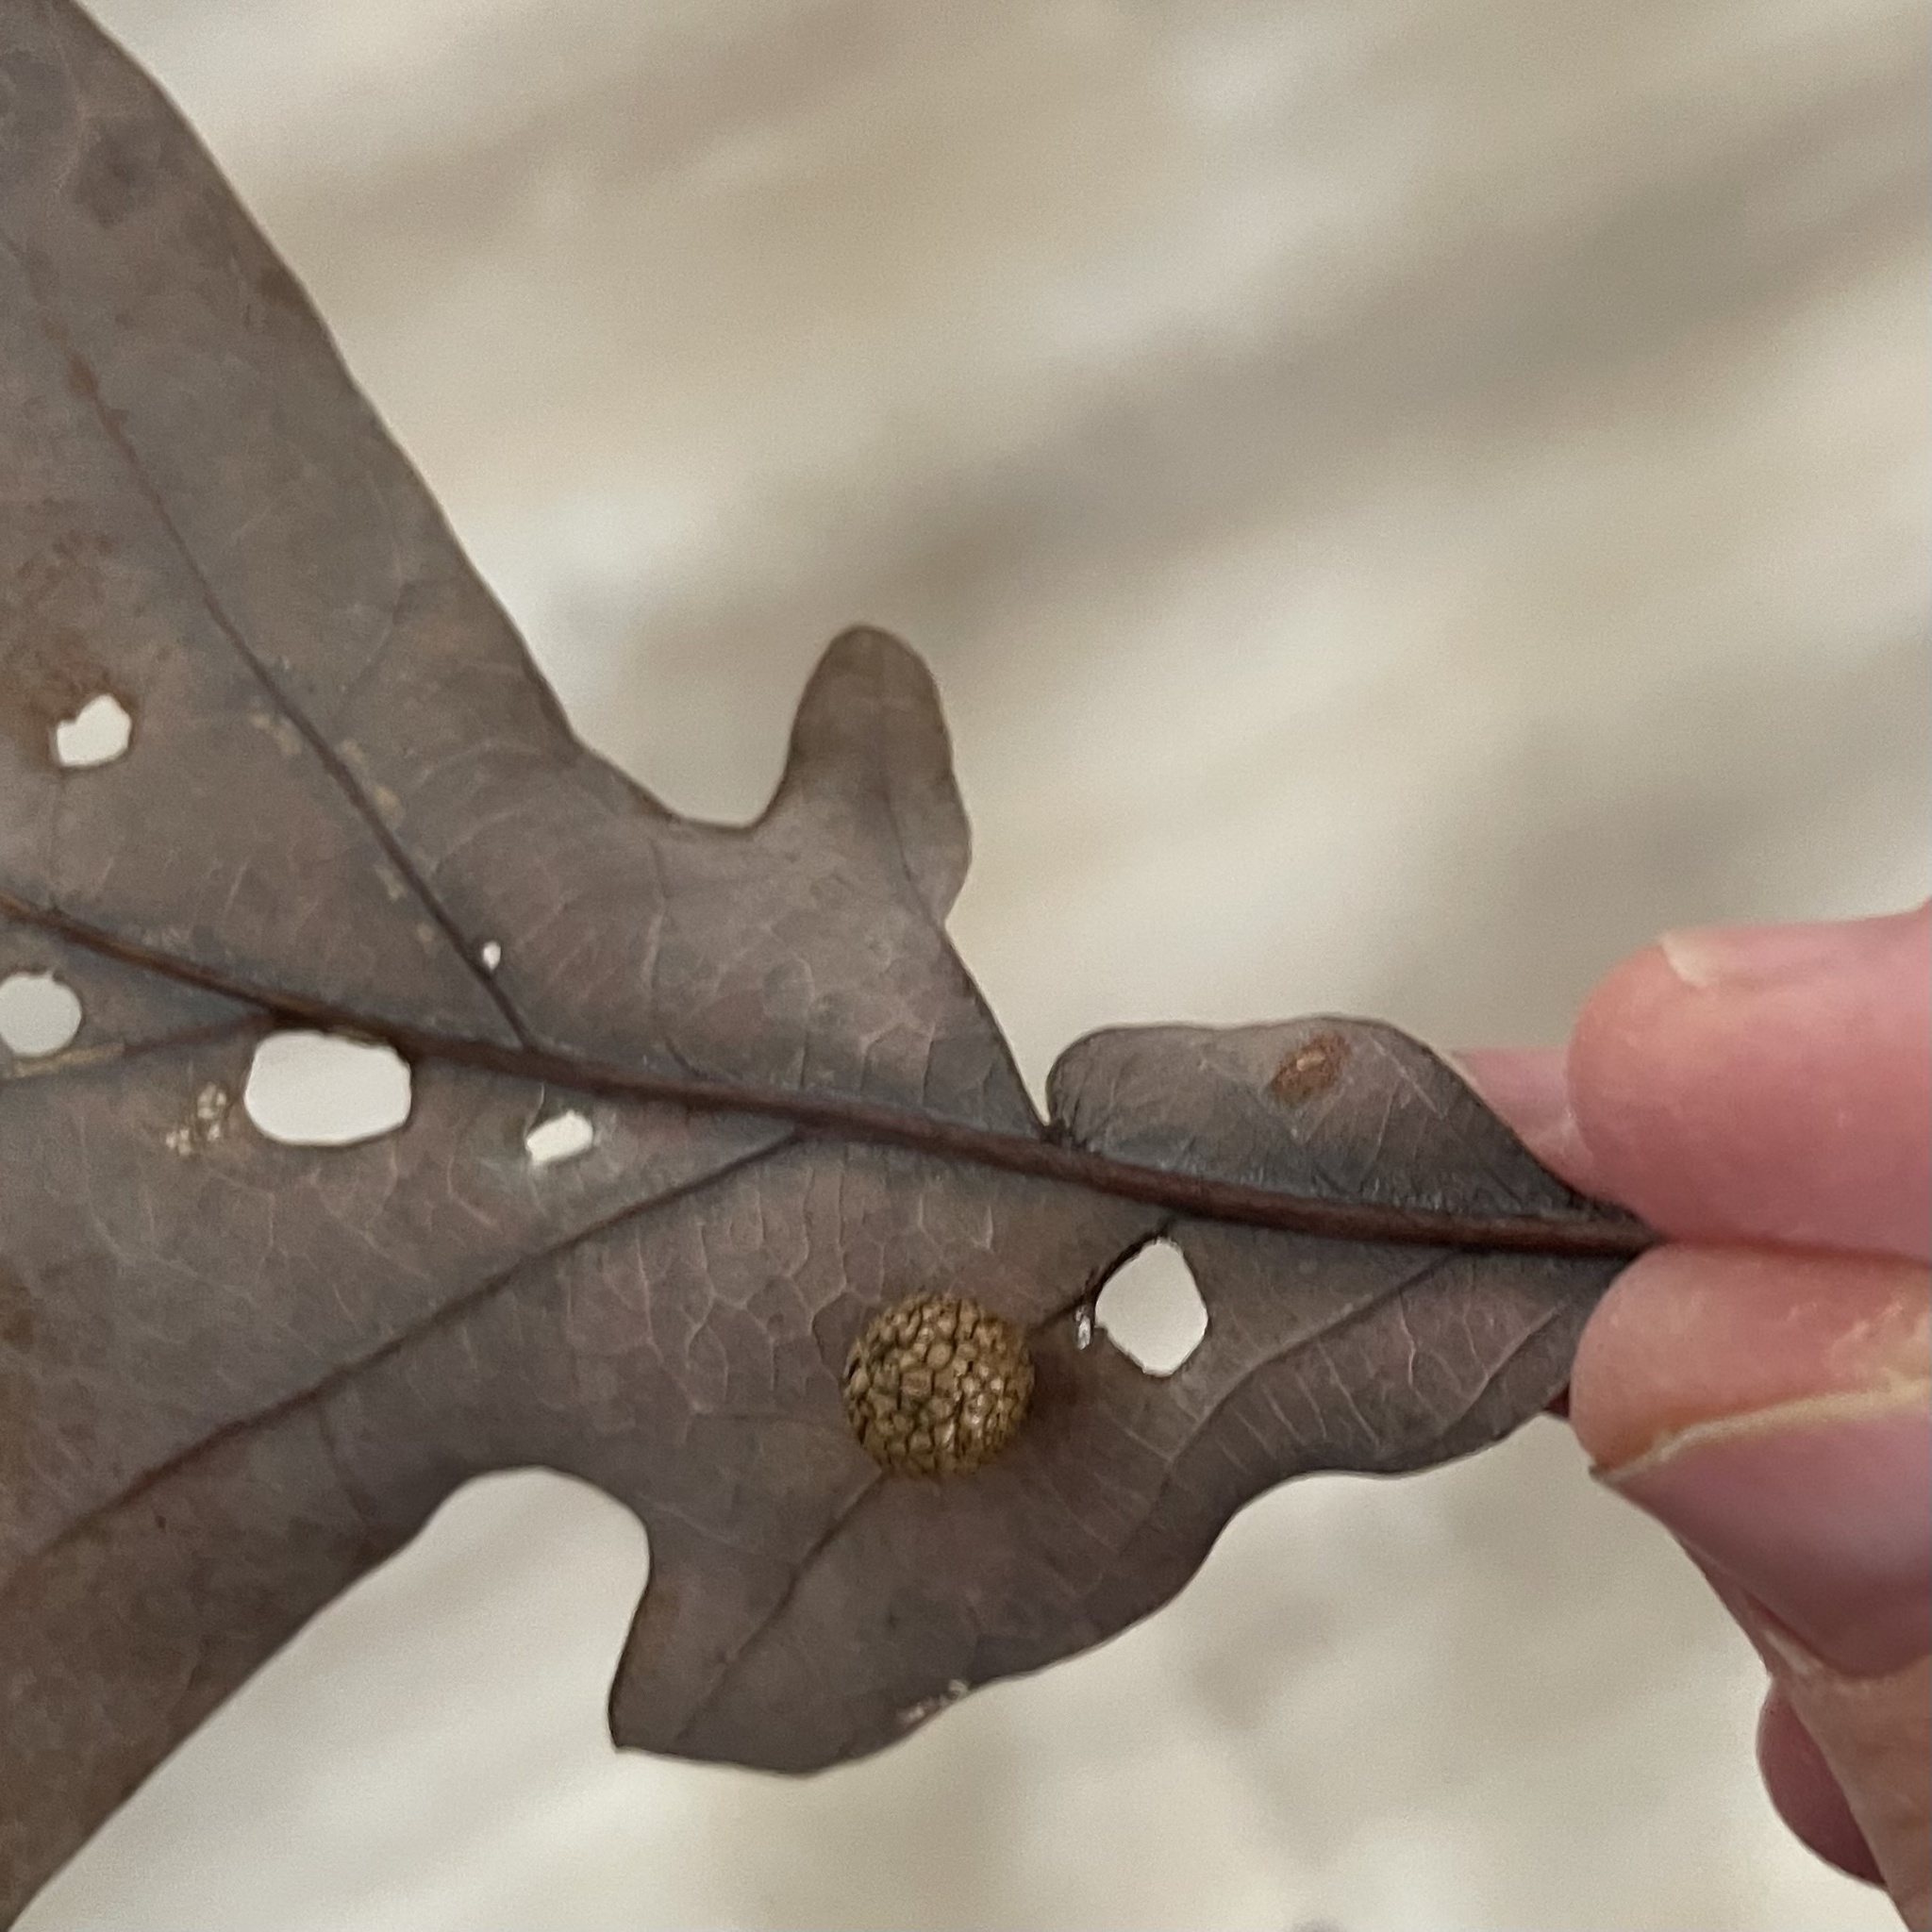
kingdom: Animalia
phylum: Arthropoda
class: Insecta
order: Hymenoptera
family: Cynipidae
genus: Acraspis
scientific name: Acraspis
